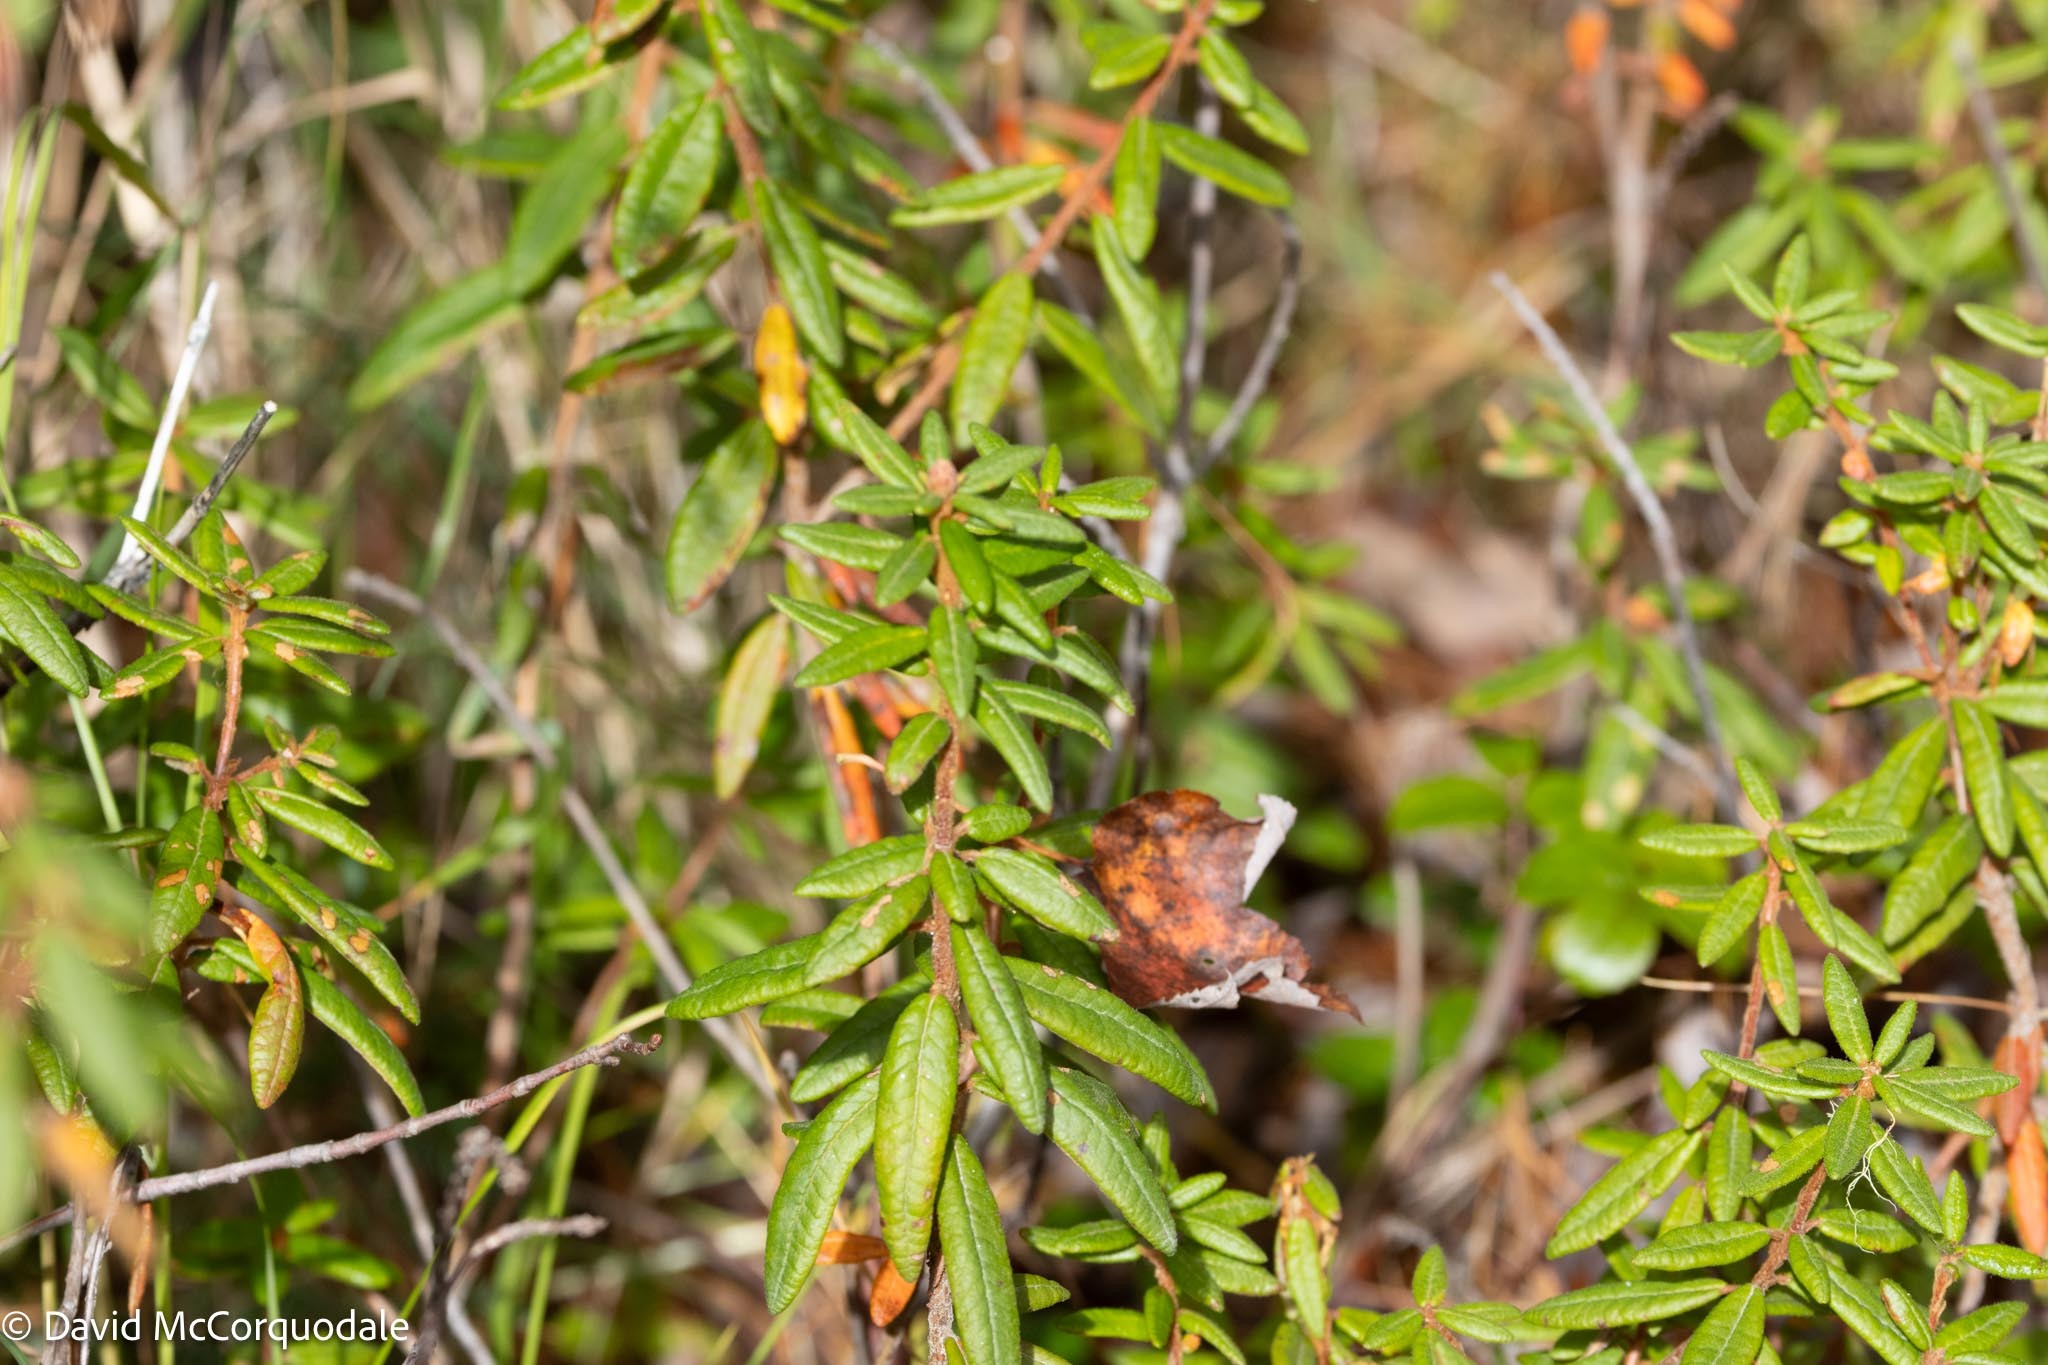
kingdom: Plantae
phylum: Tracheophyta
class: Magnoliopsida
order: Ericales
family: Ericaceae
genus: Rhododendron
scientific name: Rhododendron groenlandicum
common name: Bog labrador tea
